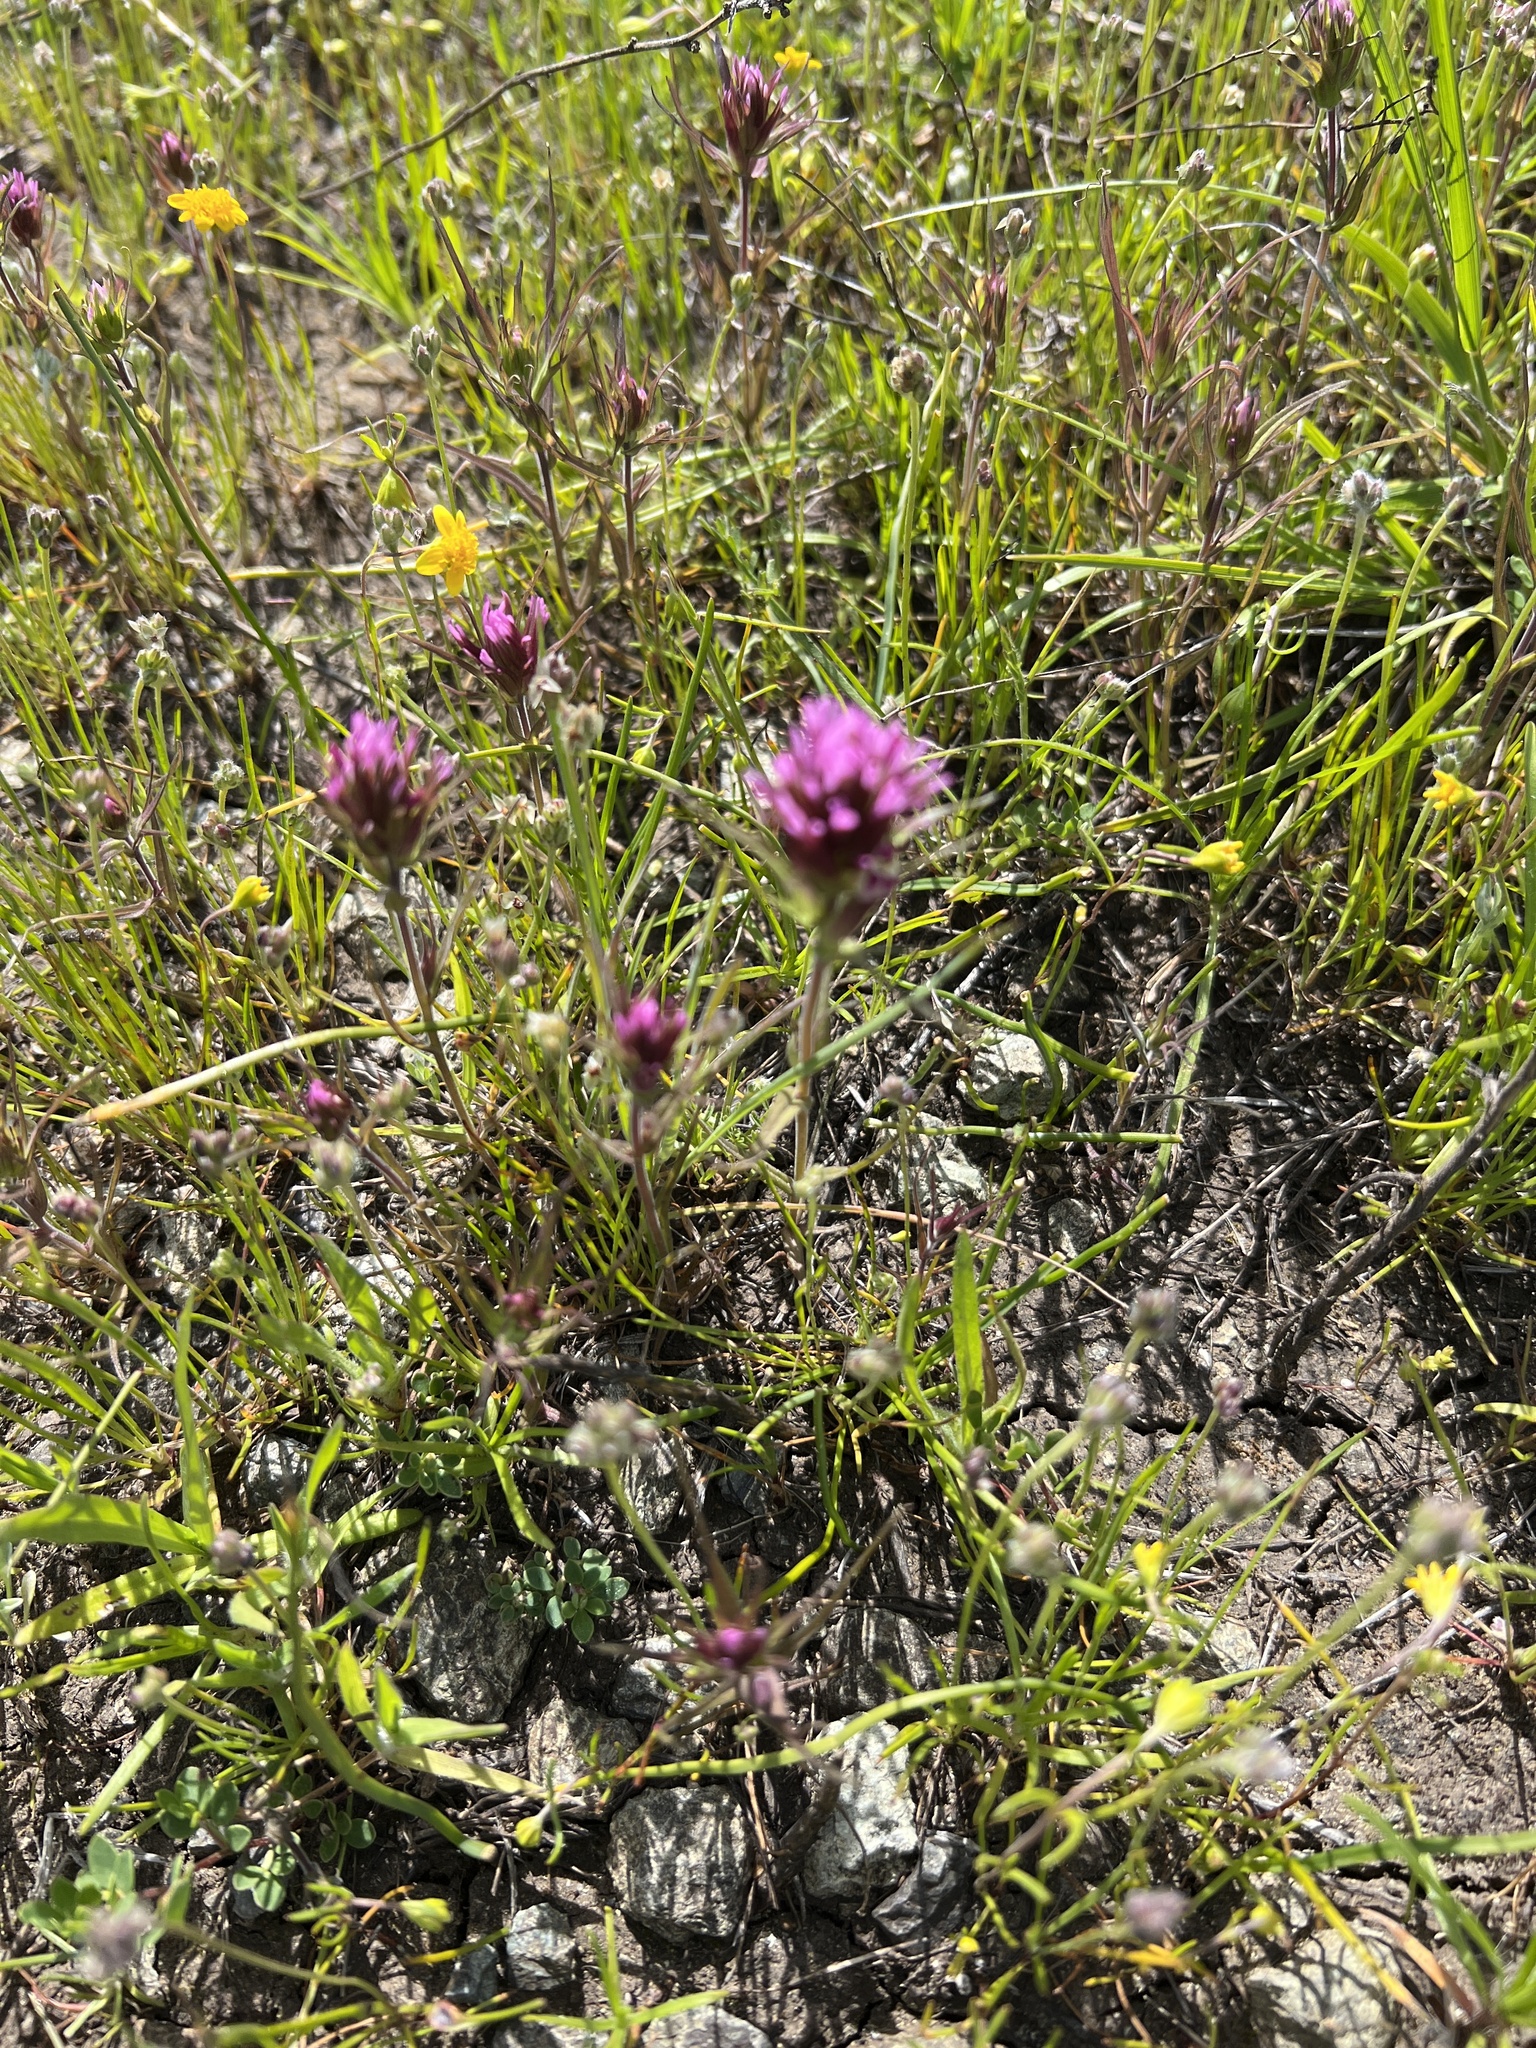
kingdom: Plantae
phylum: Tracheophyta
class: Magnoliopsida
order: Lamiales
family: Orobanchaceae
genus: Castilleja
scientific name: Castilleja densiflora
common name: Dense-flower indian paintbrush
